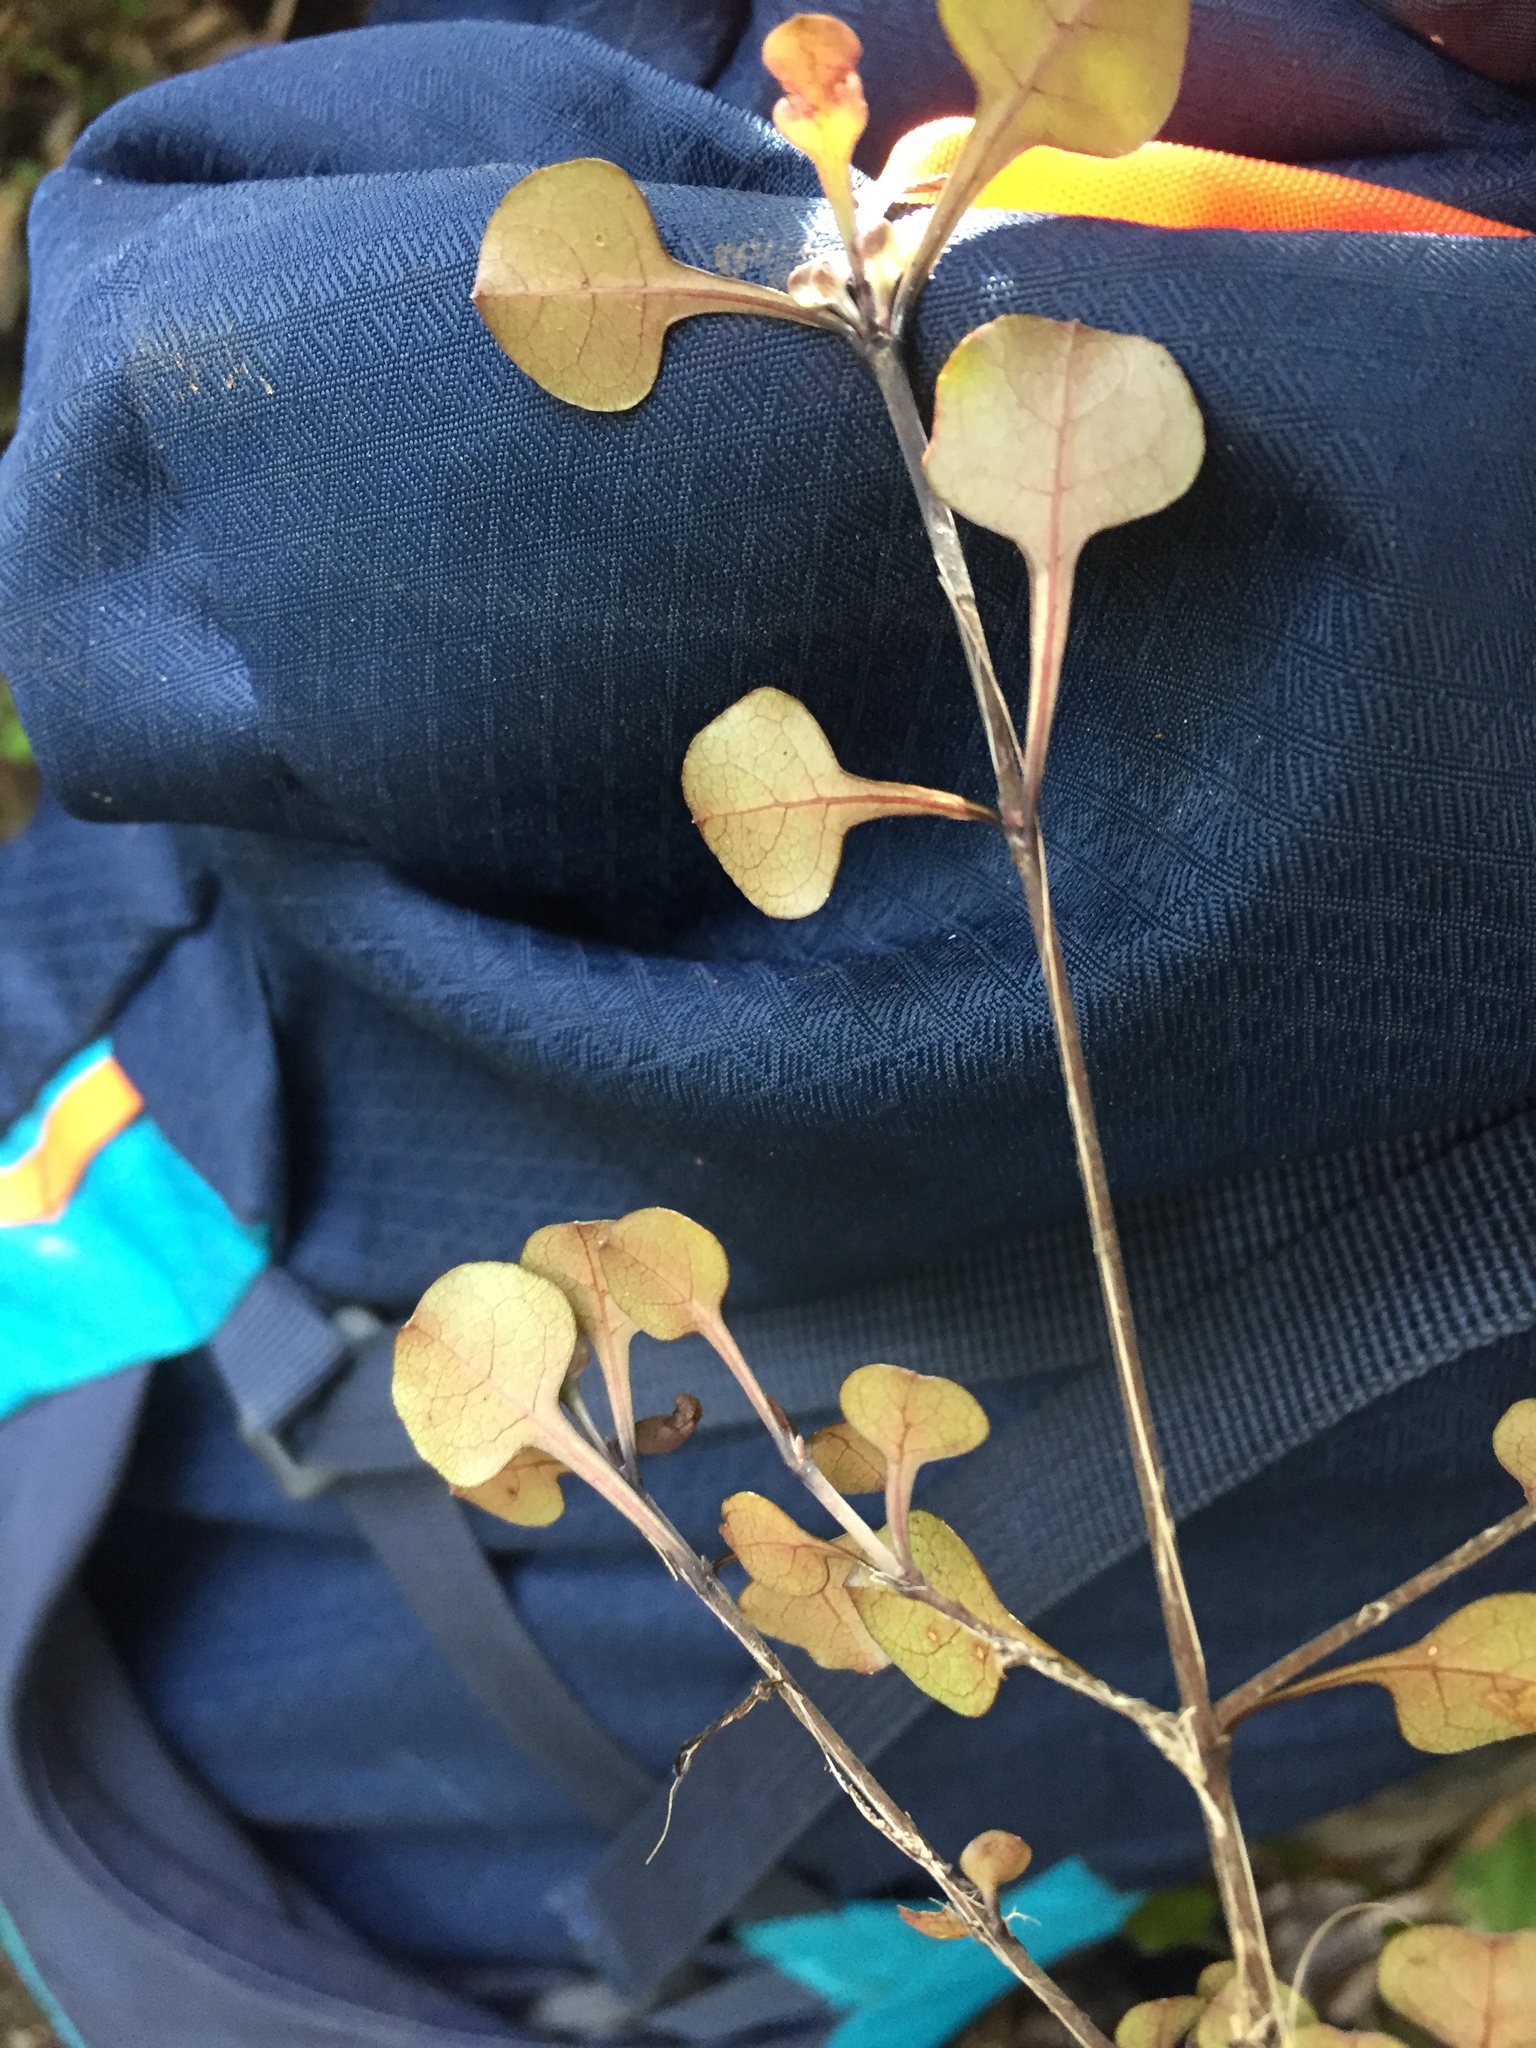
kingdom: Plantae
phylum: Tracheophyta
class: Magnoliopsida
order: Gentianales
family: Rubiaceae
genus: Coprosma
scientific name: Coprosma spathulata
